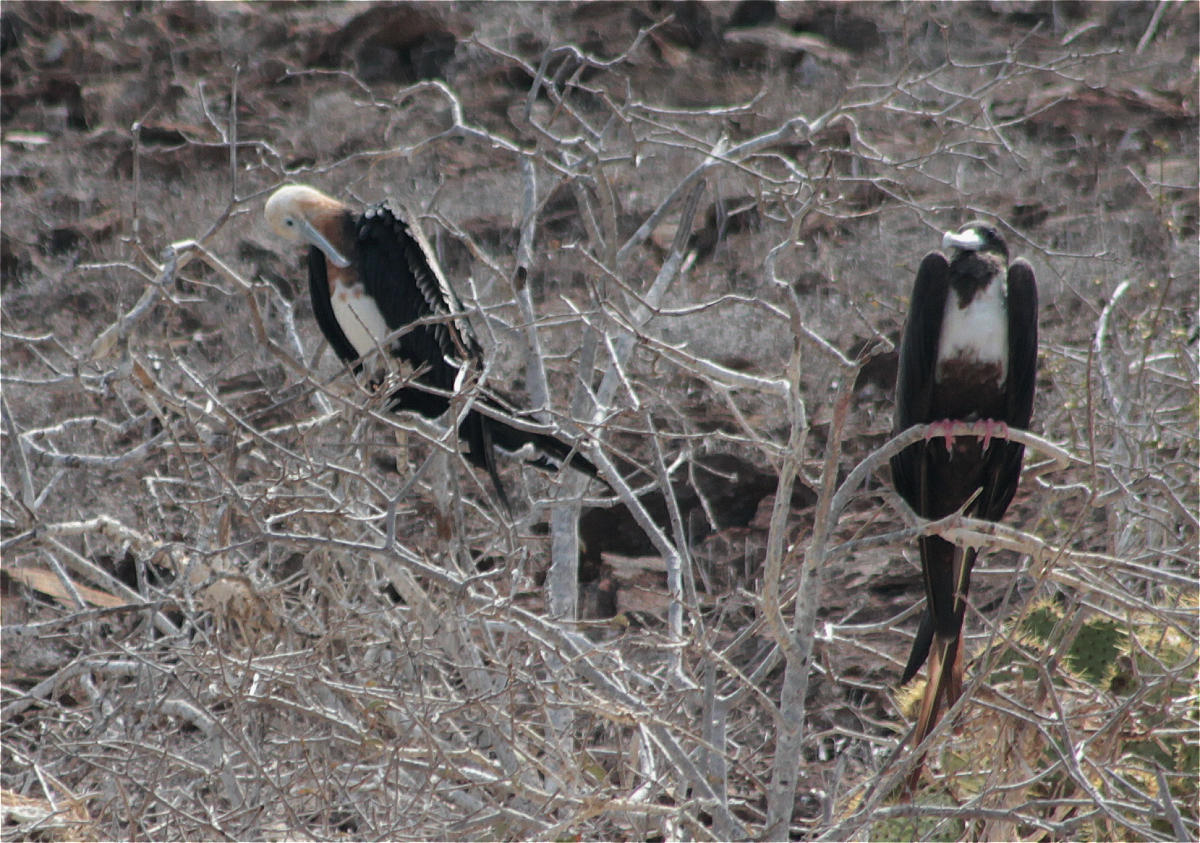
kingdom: Animalia
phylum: Chordata
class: Aves
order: Suliformes
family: Fregatidae
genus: Fregata
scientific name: Fregata minor
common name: Great frigatebird
